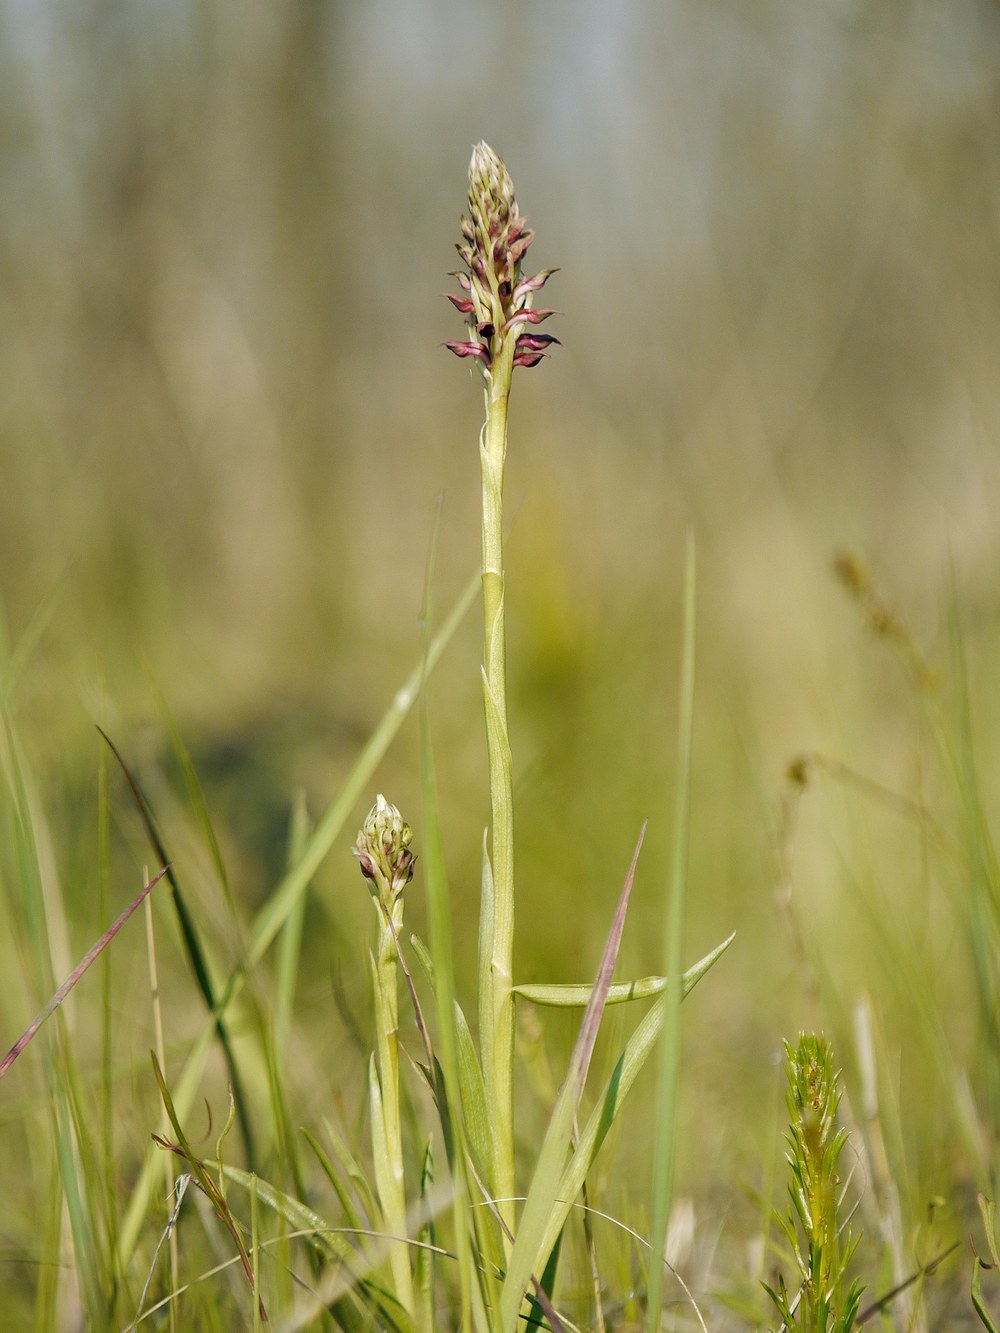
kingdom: Plantae
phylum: Tracheophyta
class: Liliopsida
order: Asparagales
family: Orchidaceae
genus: Anacamptis
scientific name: Anacamptis coriophora
